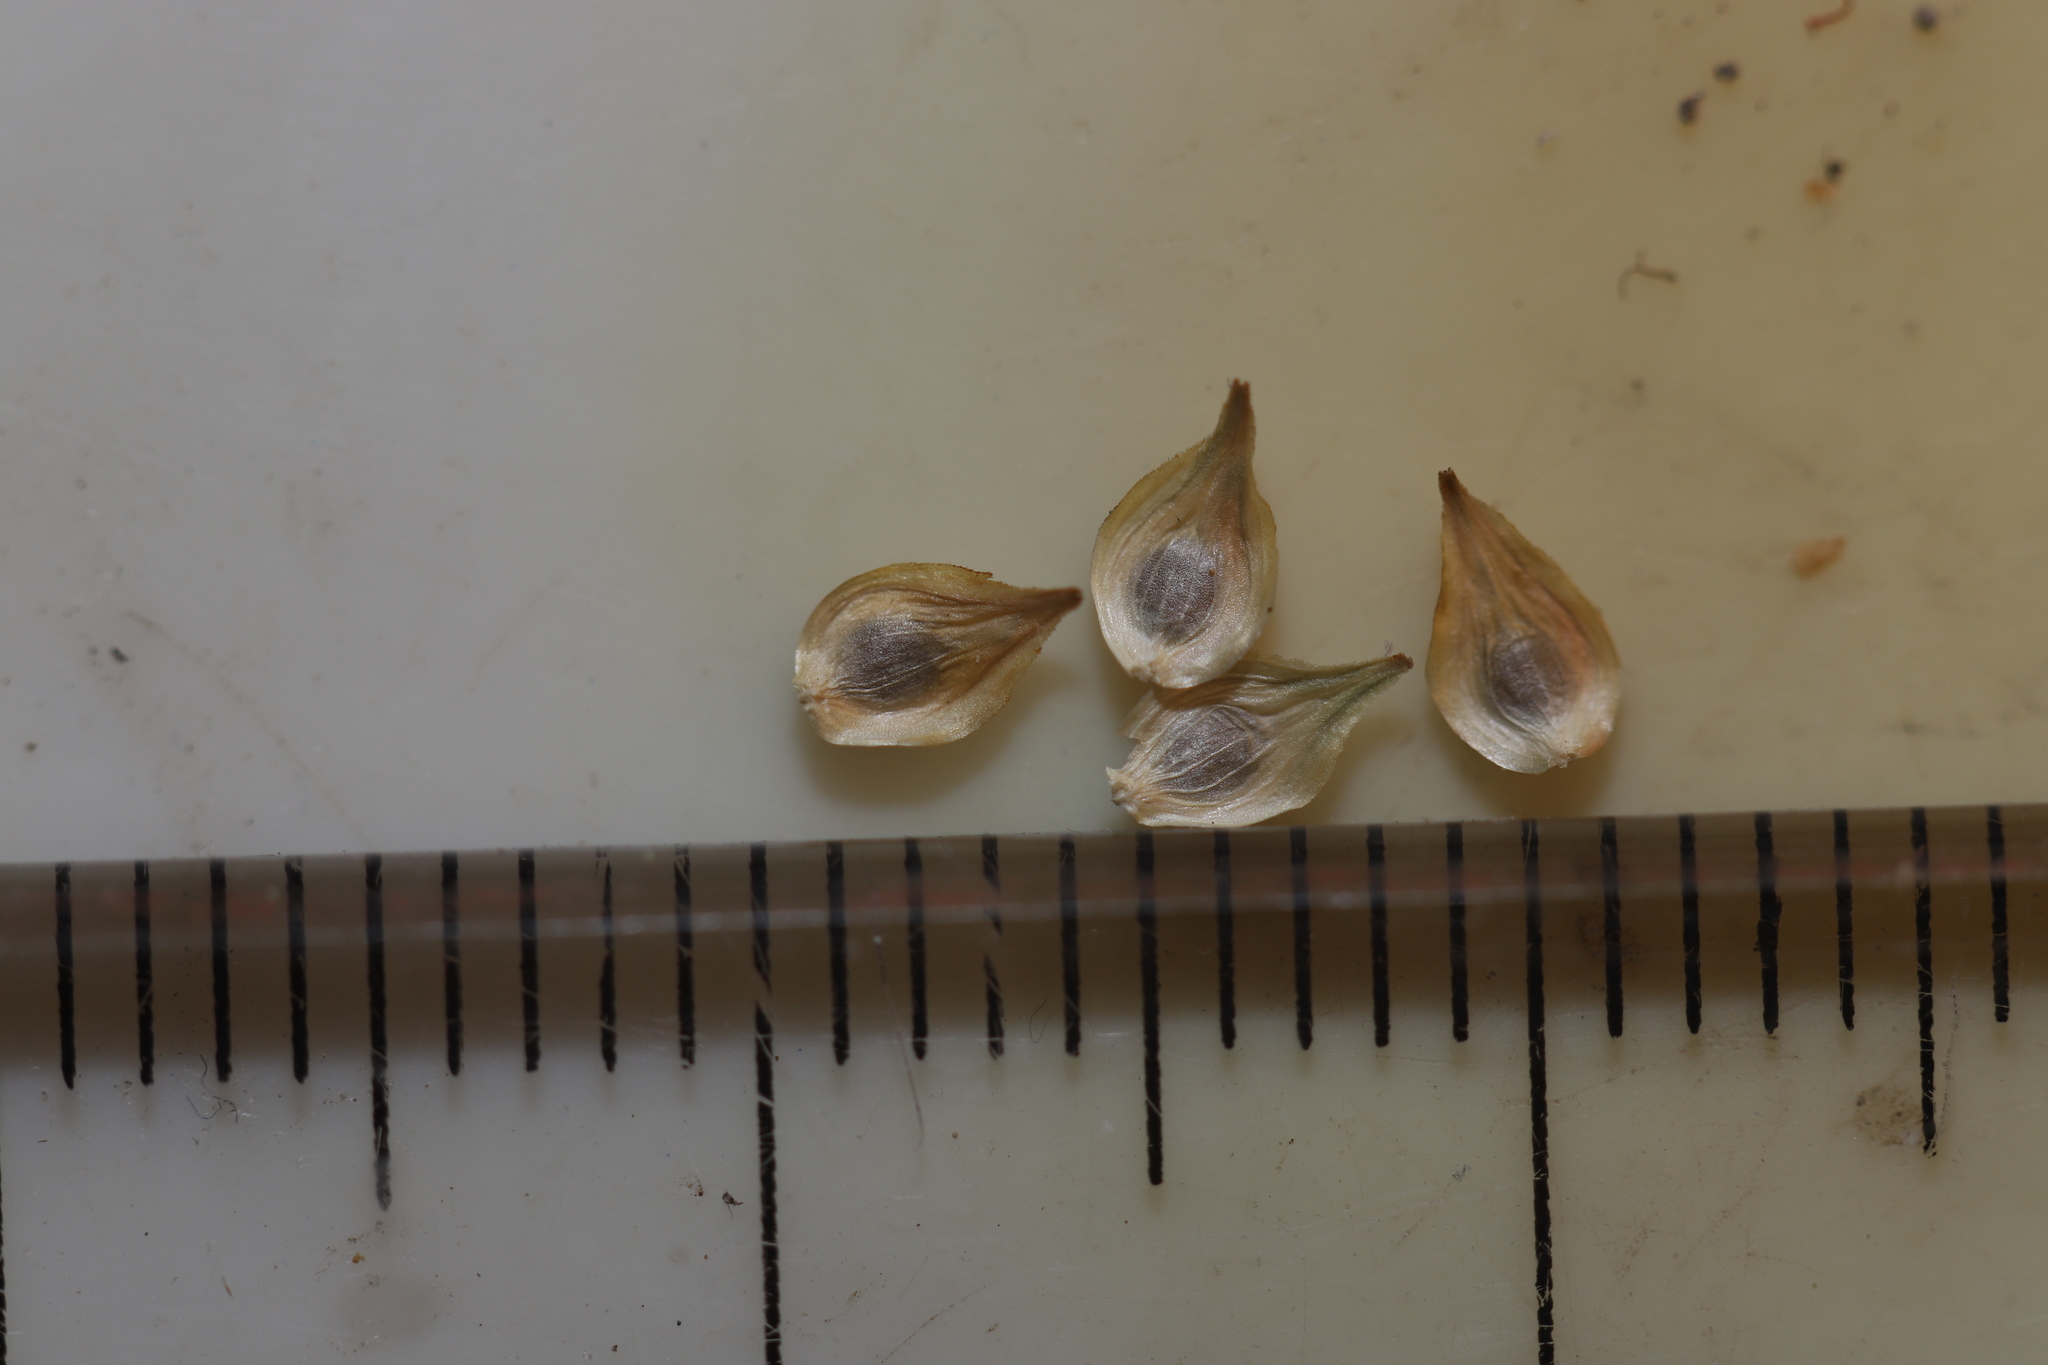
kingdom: Plantae
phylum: Tracheophyta
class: Liliopsida
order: Poales
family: Cyperaceae
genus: Carex
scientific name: Carex merritt-fernaldii
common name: Fernald's oval sedge
